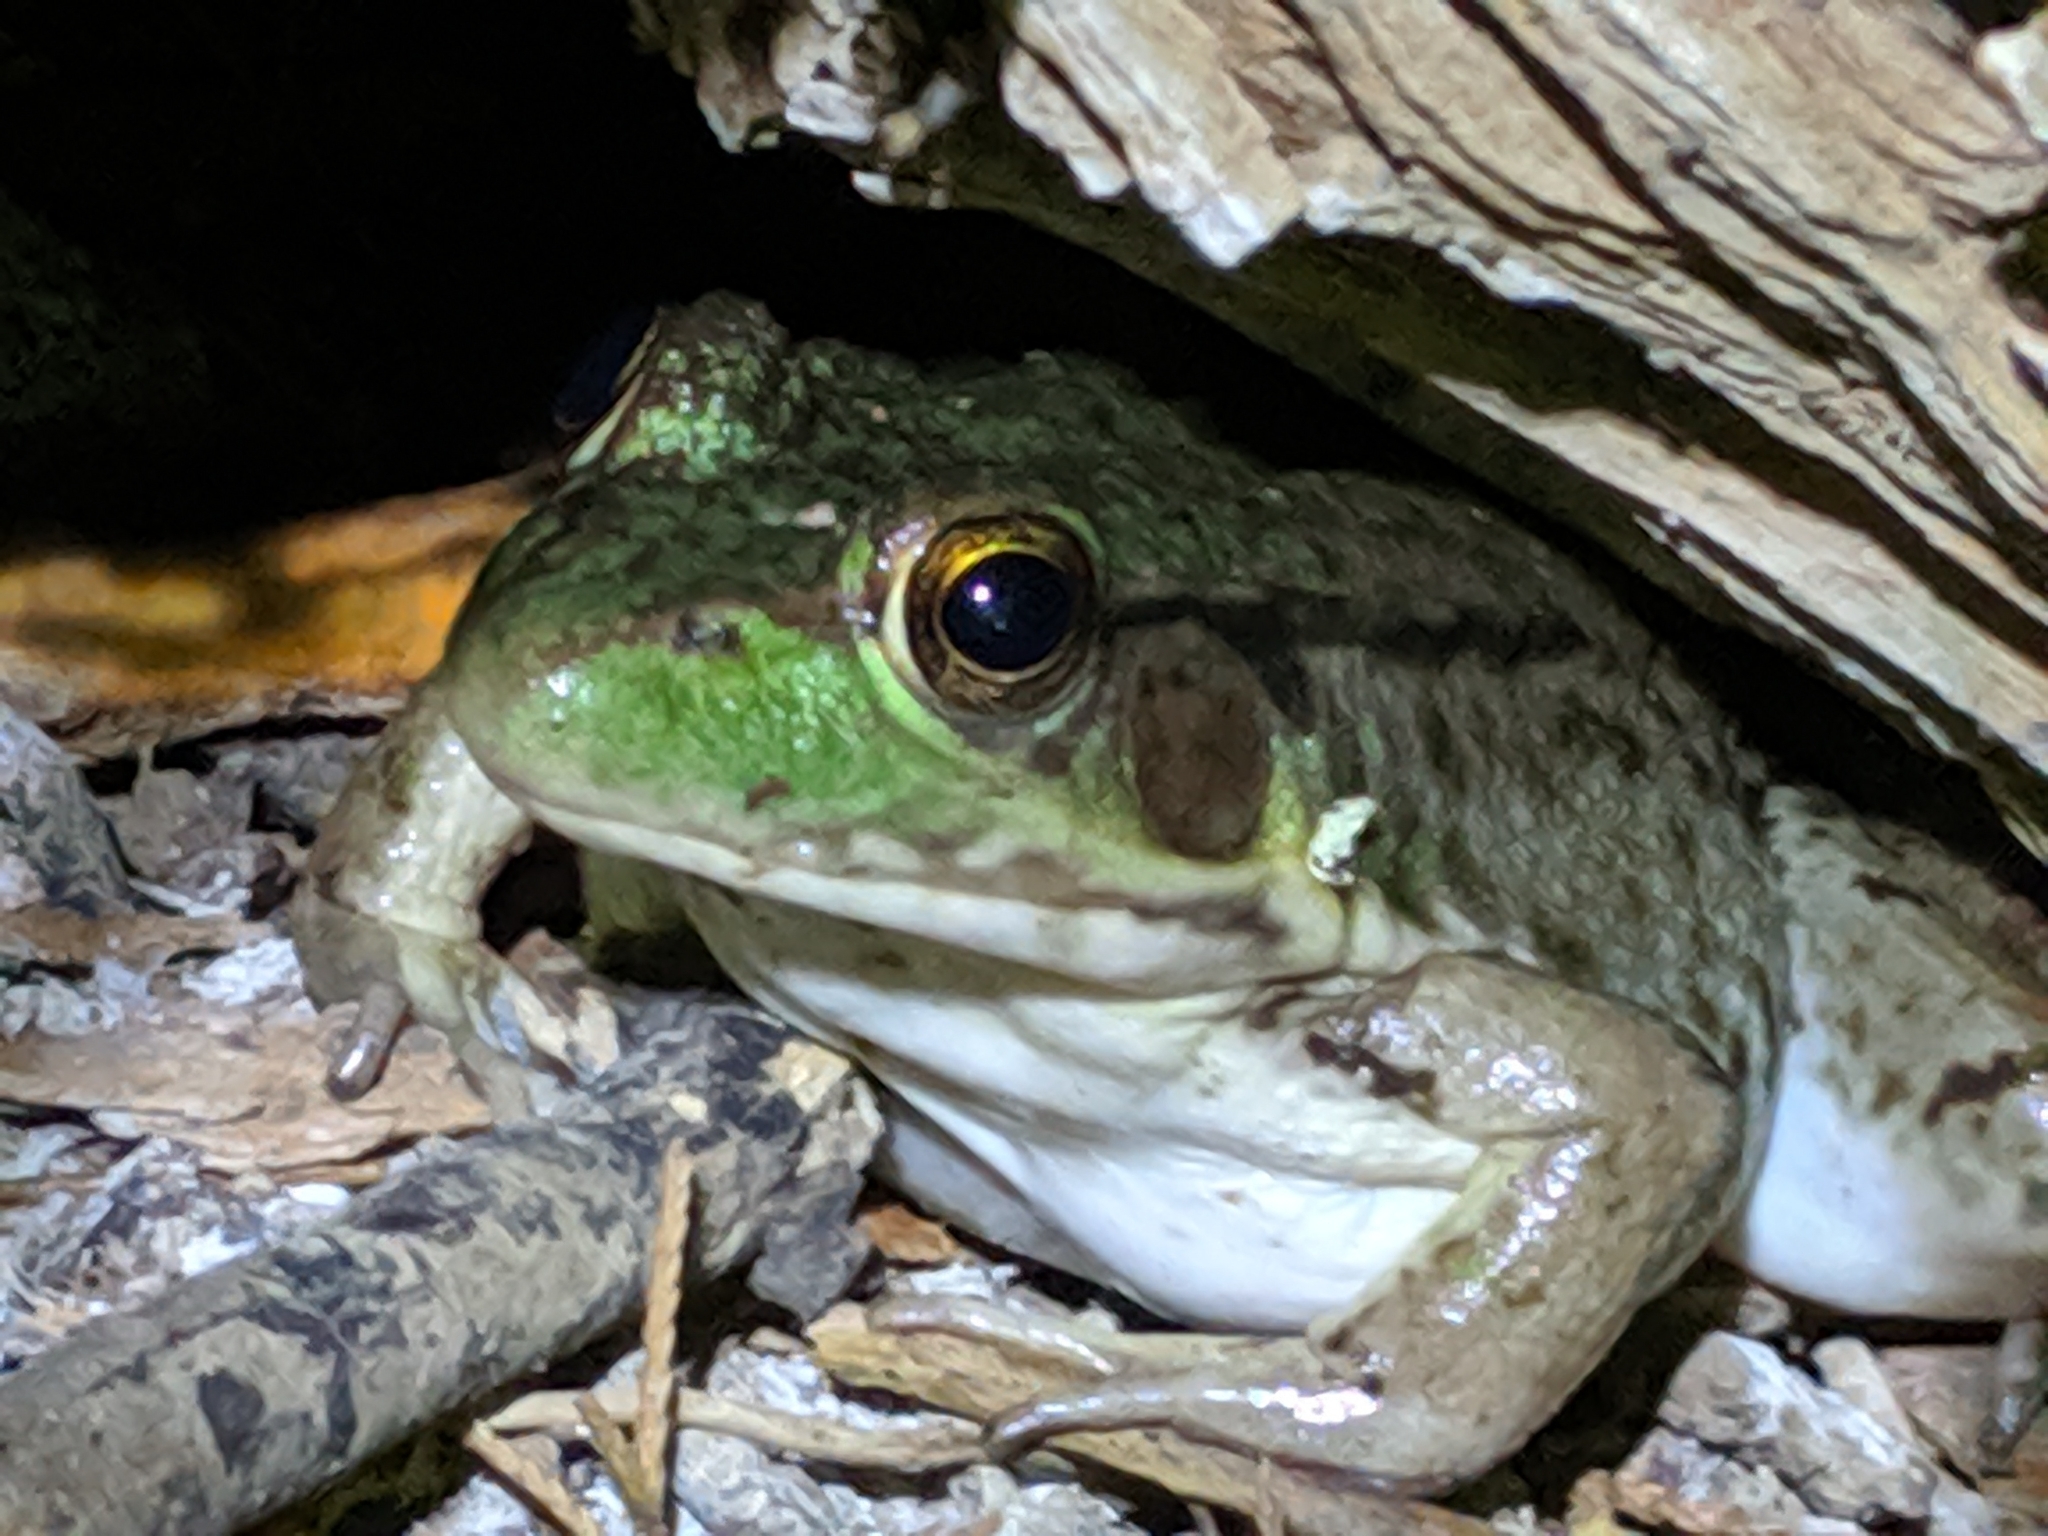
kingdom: Animalia
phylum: Chordata
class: Amphibia
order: Anura
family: Ranidae
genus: Lithobates
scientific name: Lithobates clamitans
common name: Green frog
